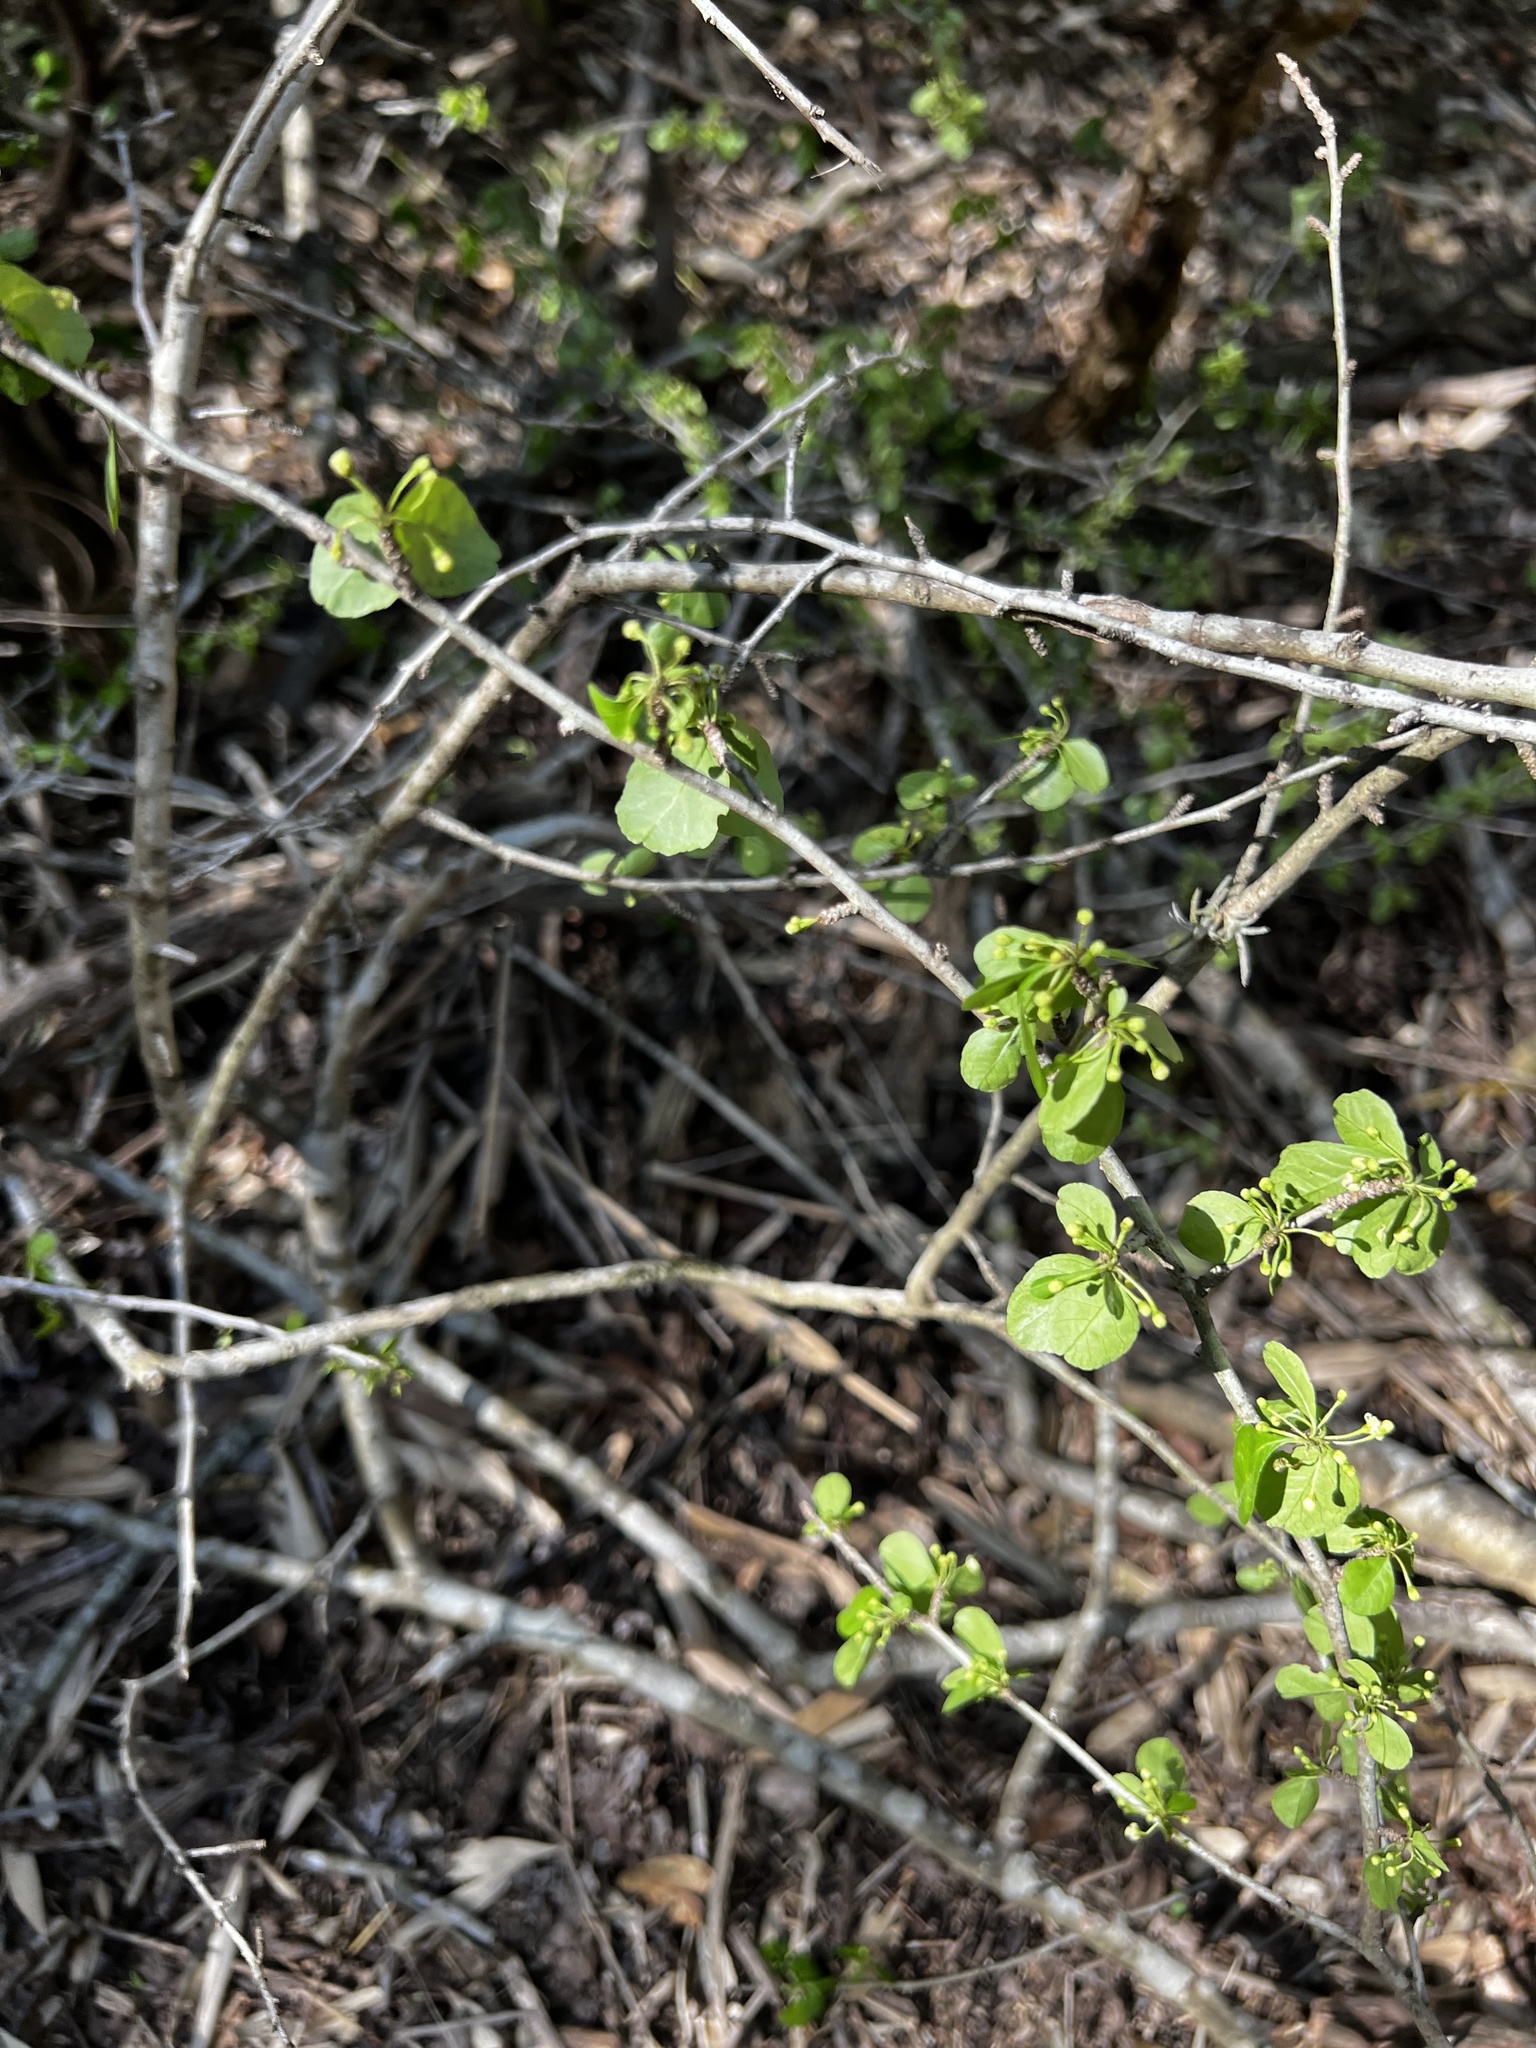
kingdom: Plantae
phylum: Tracheophyta
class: Magnoliopsida
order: Aquifoliales
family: Aquifoliaceae
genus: Ilex
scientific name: Ilex decidua
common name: Possum-haw
